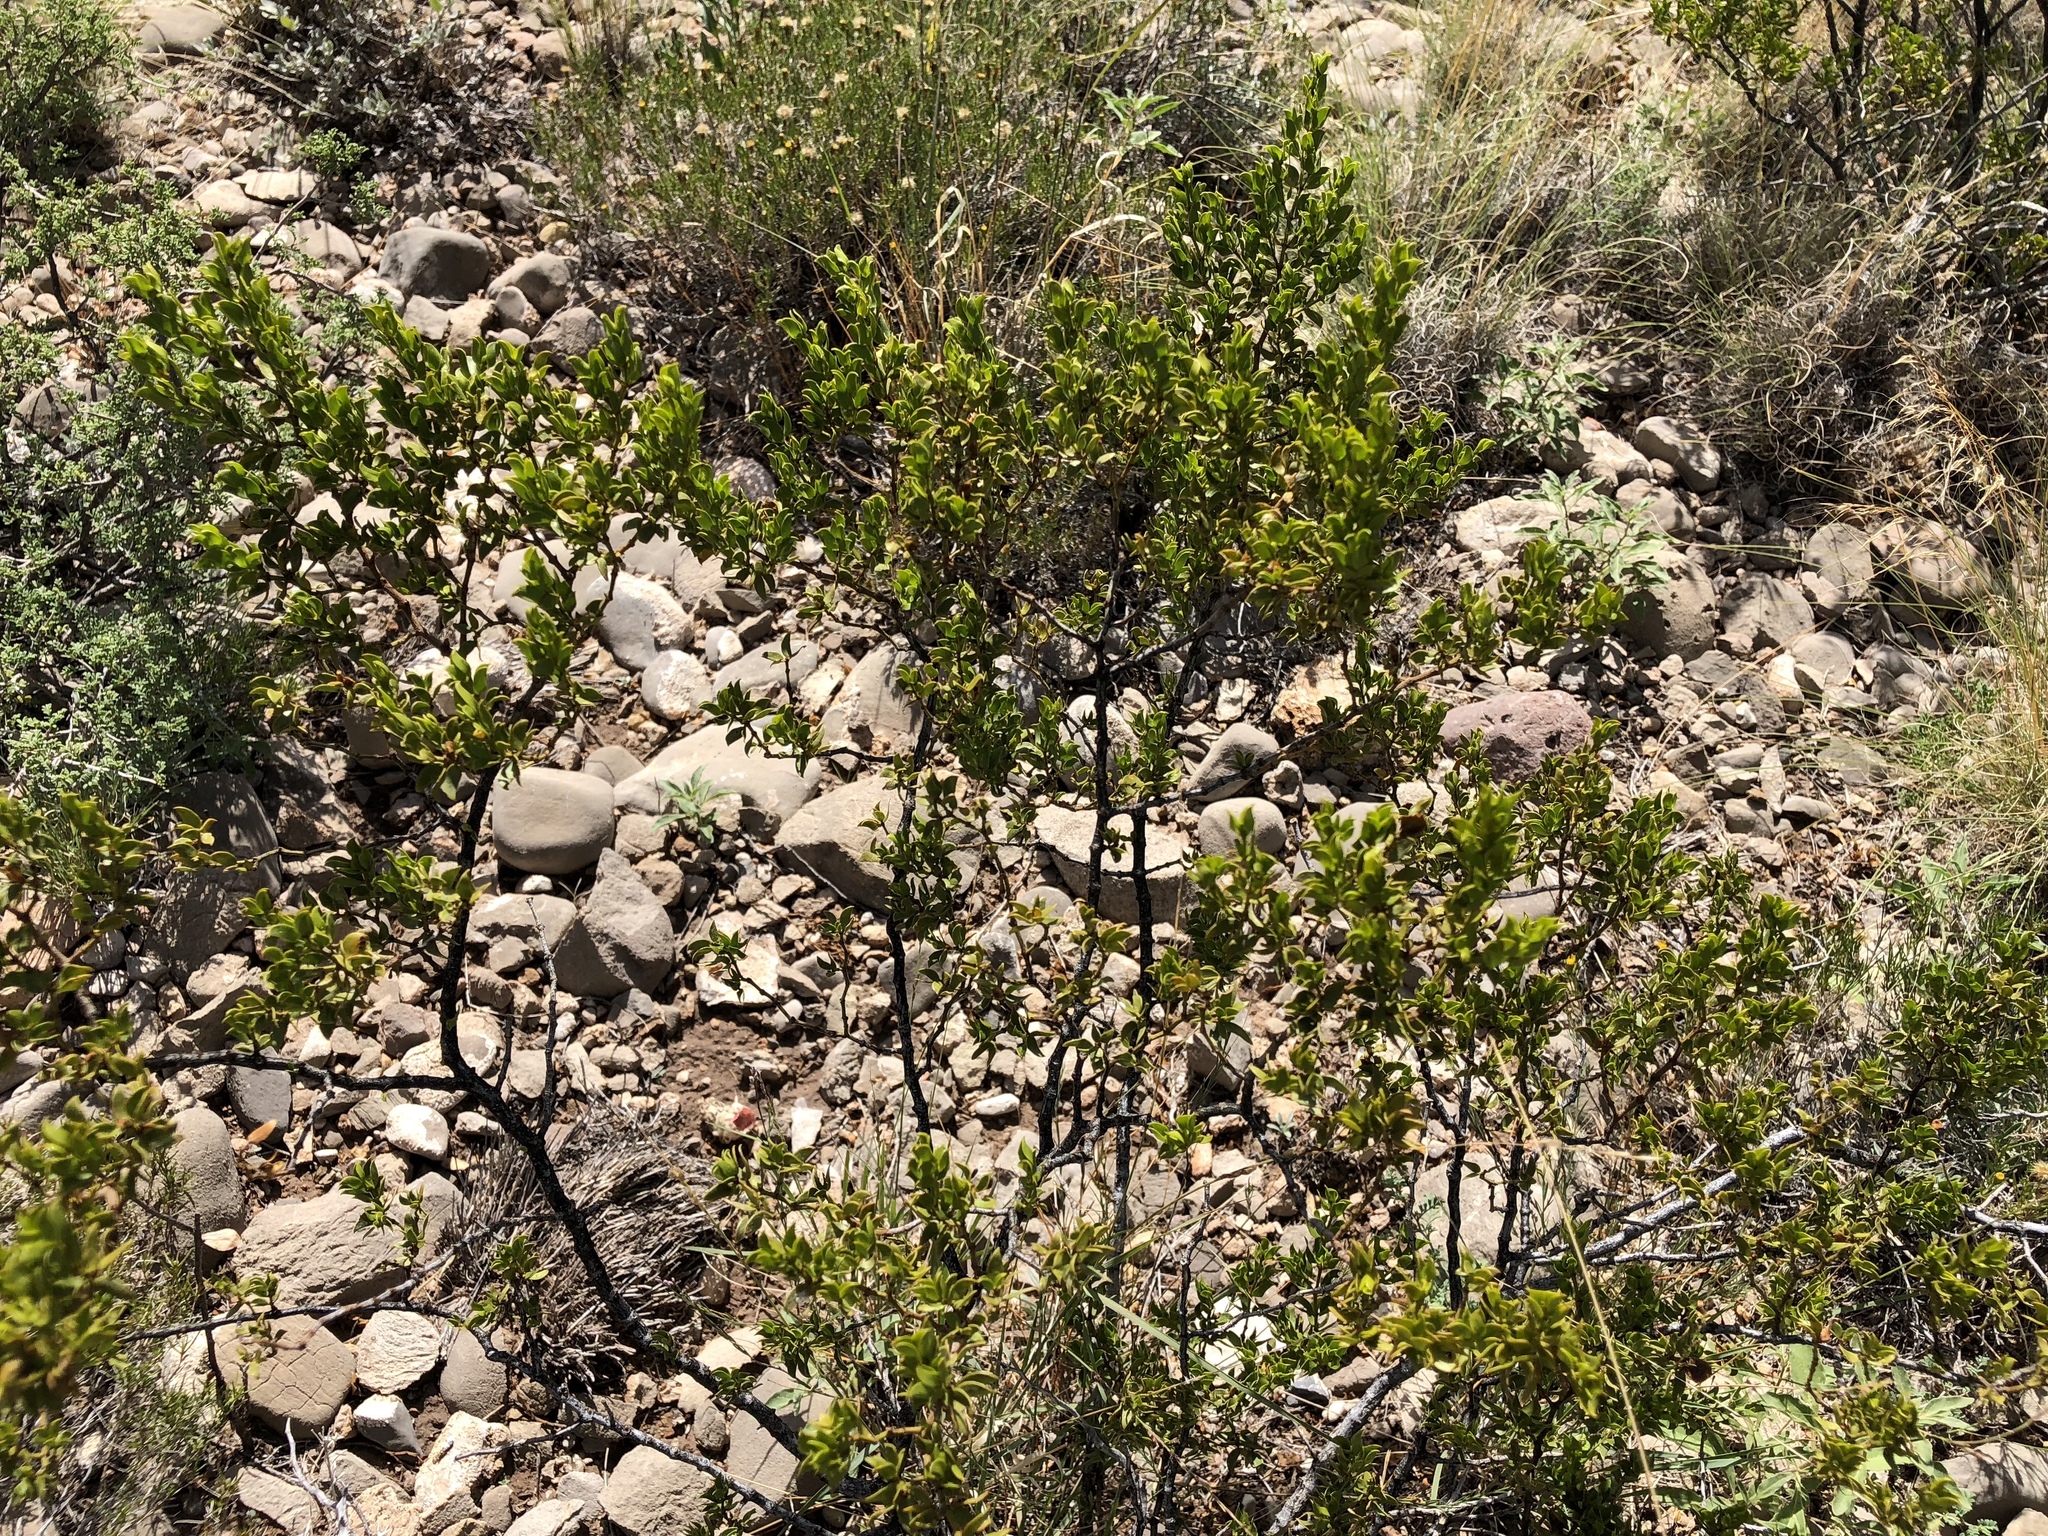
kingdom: Plantae
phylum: Tracheophyta
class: Magnoliopsida
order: Zygophyllales
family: Zygophyllaceae
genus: Larrea
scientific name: Larrea tridentata
